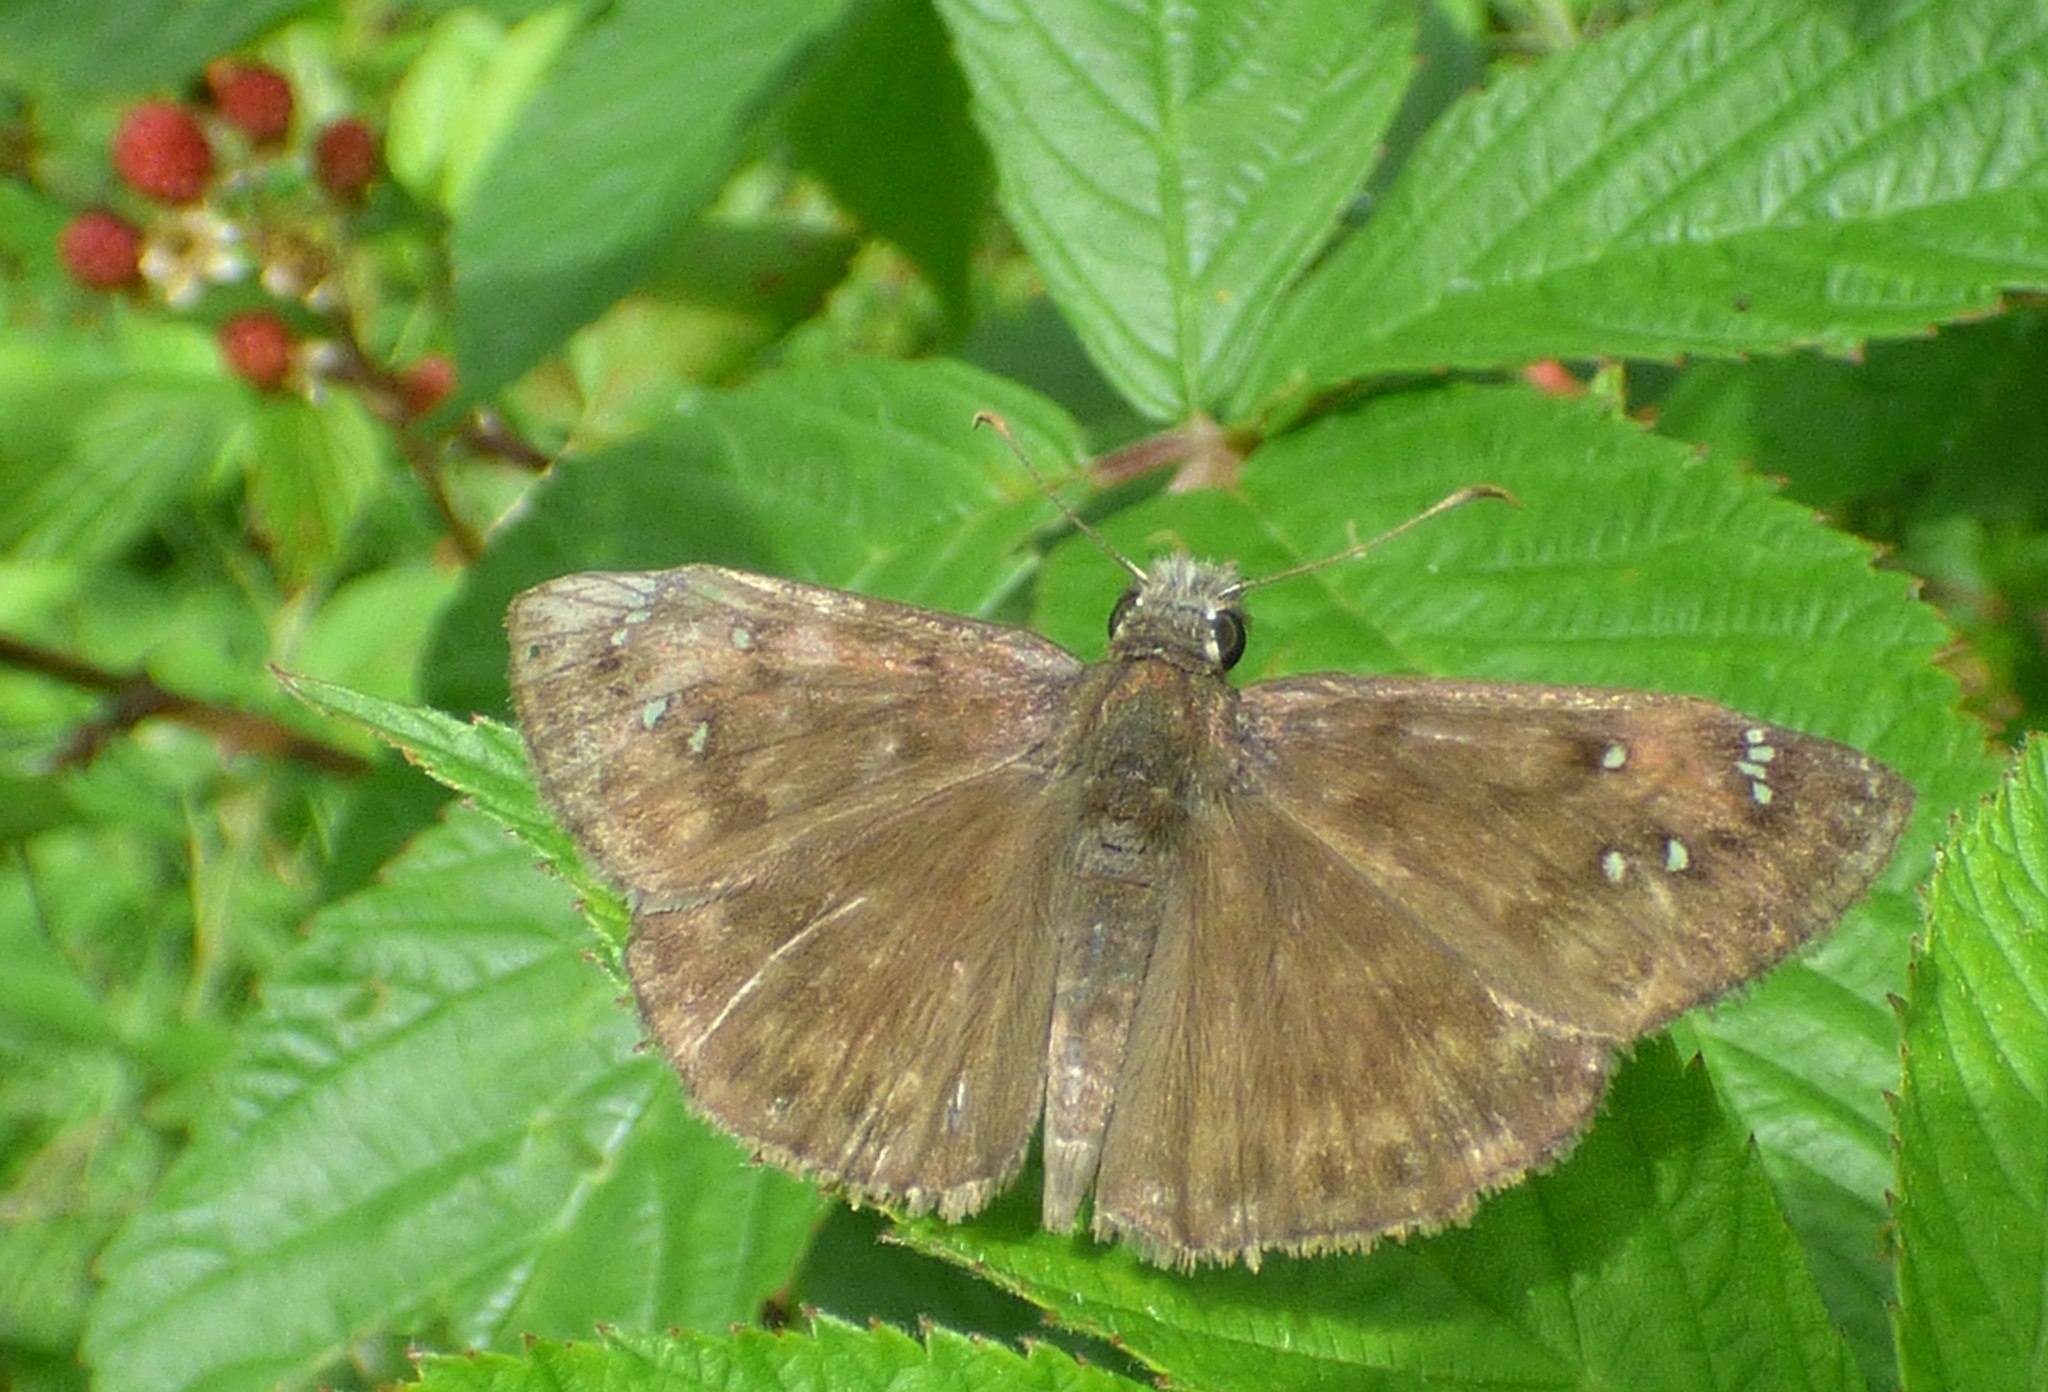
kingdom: Animalia
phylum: Arthropoda
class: Insecta
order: Lepidoptera
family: Hesperiidae
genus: Erynnis
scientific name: Erynnis horatius
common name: Horace's duskywing
